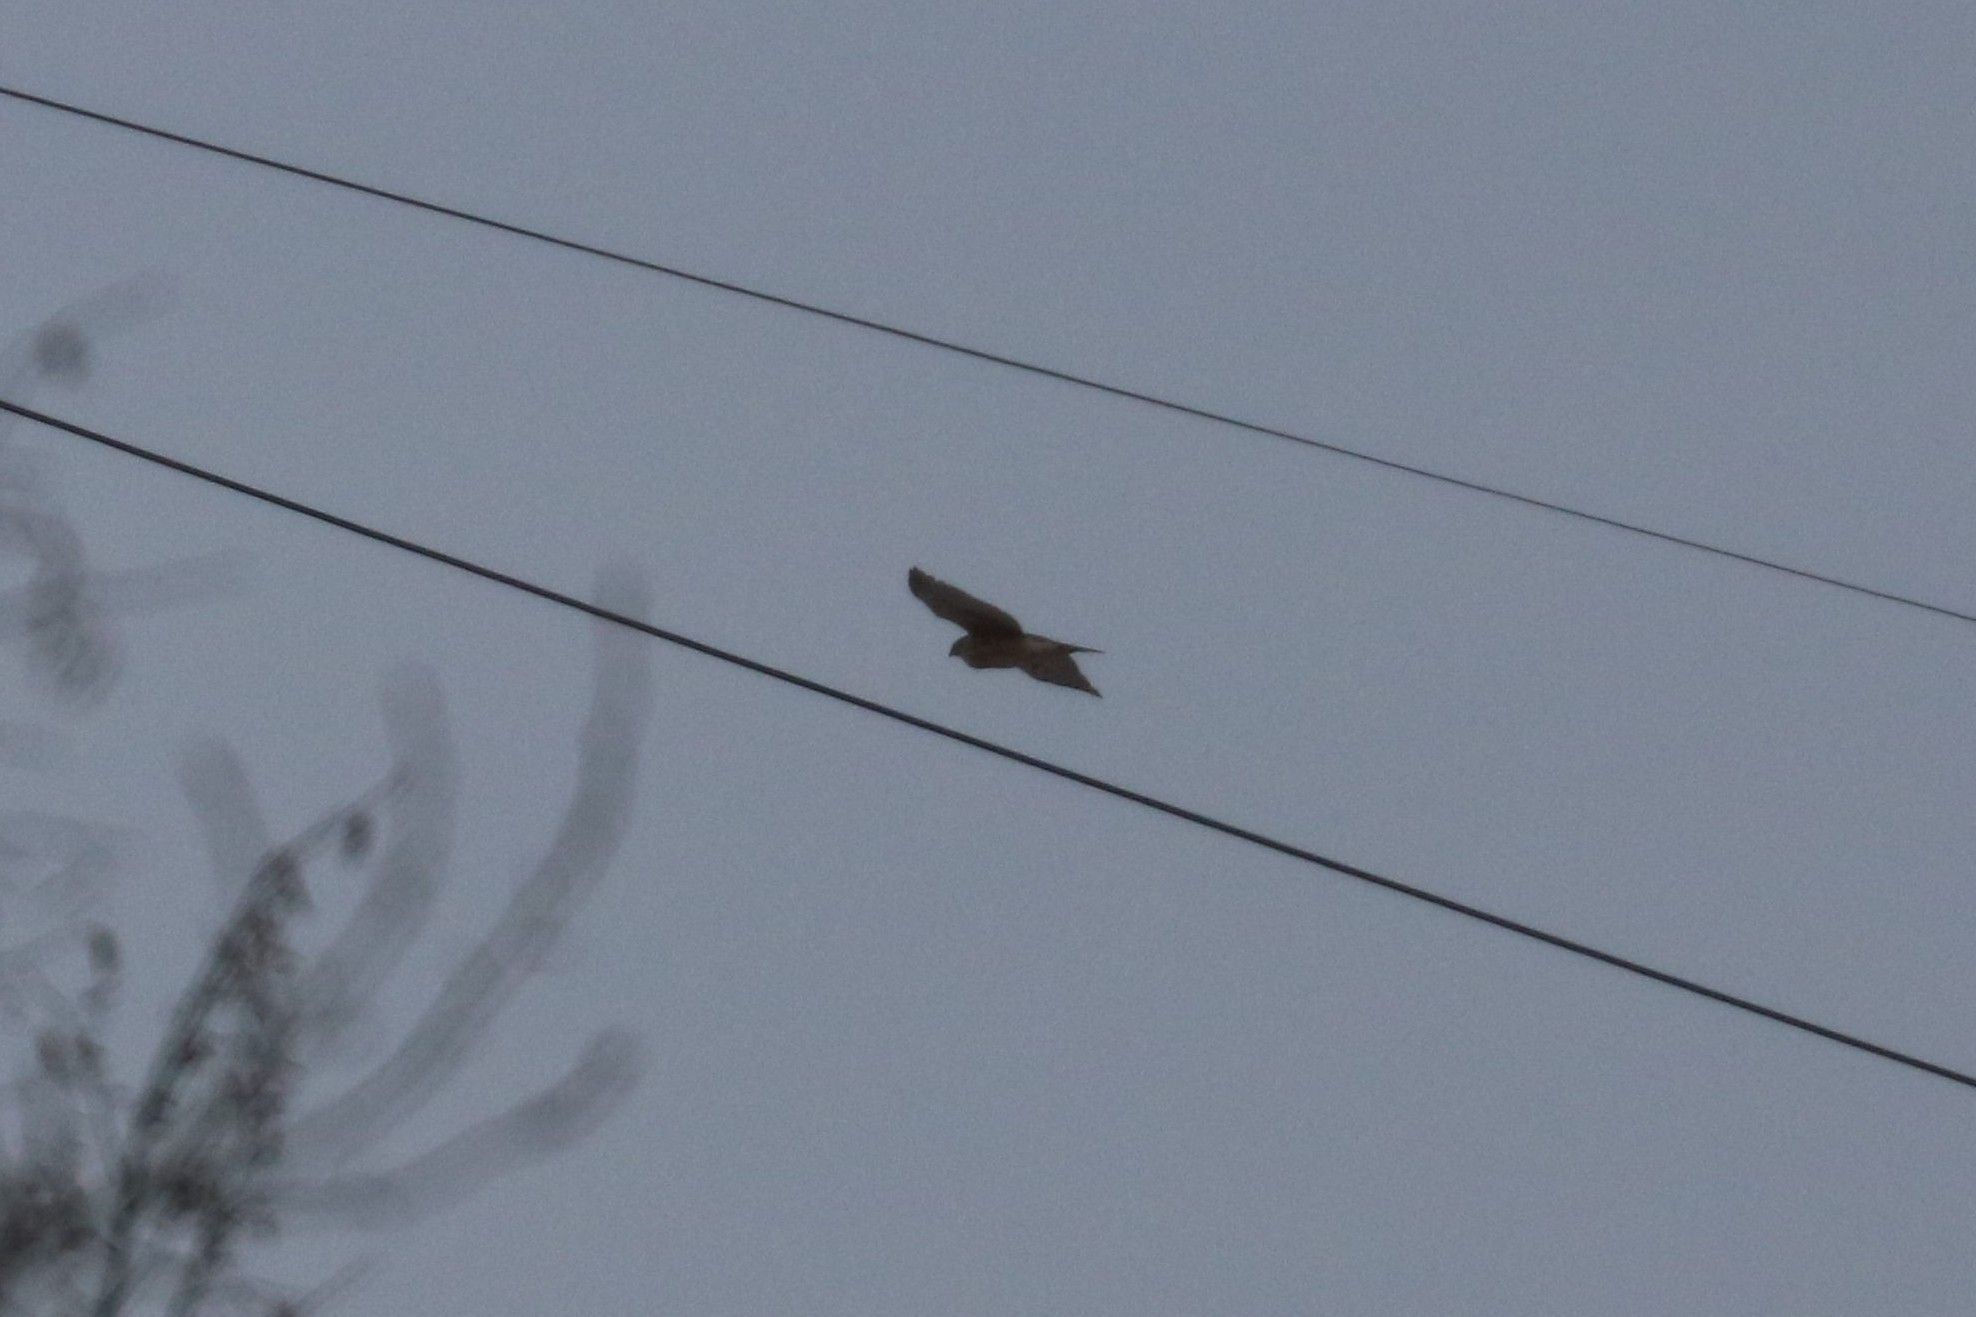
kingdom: Animalia
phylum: Chordata
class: Aves
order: Accipitriformes
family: Accipitridae
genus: Accipiter
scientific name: Accipiter gentilis
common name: Northern goshawk
